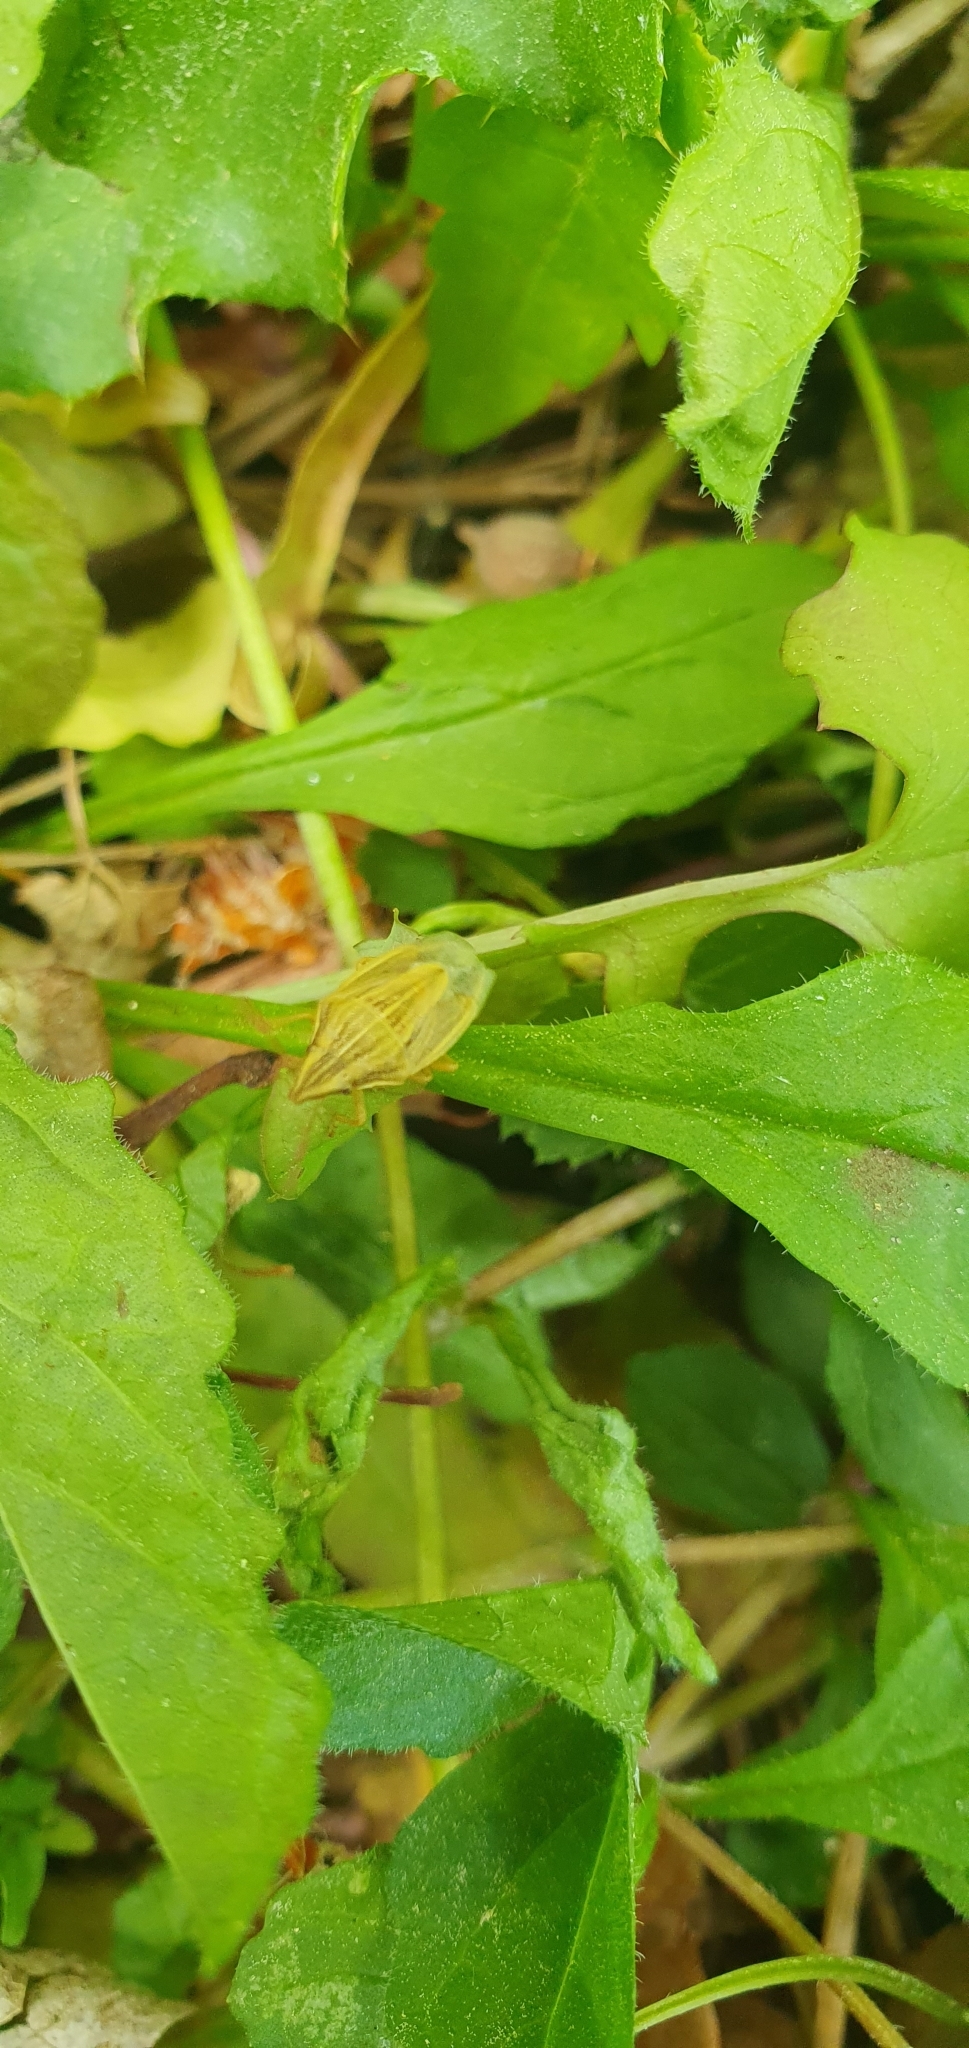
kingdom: Animalia
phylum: Arthropoda
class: Insecta
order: Hemiptera
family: Pentatomidae
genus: Aelia
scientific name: Aelia acuminata
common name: Bishop's mitre
